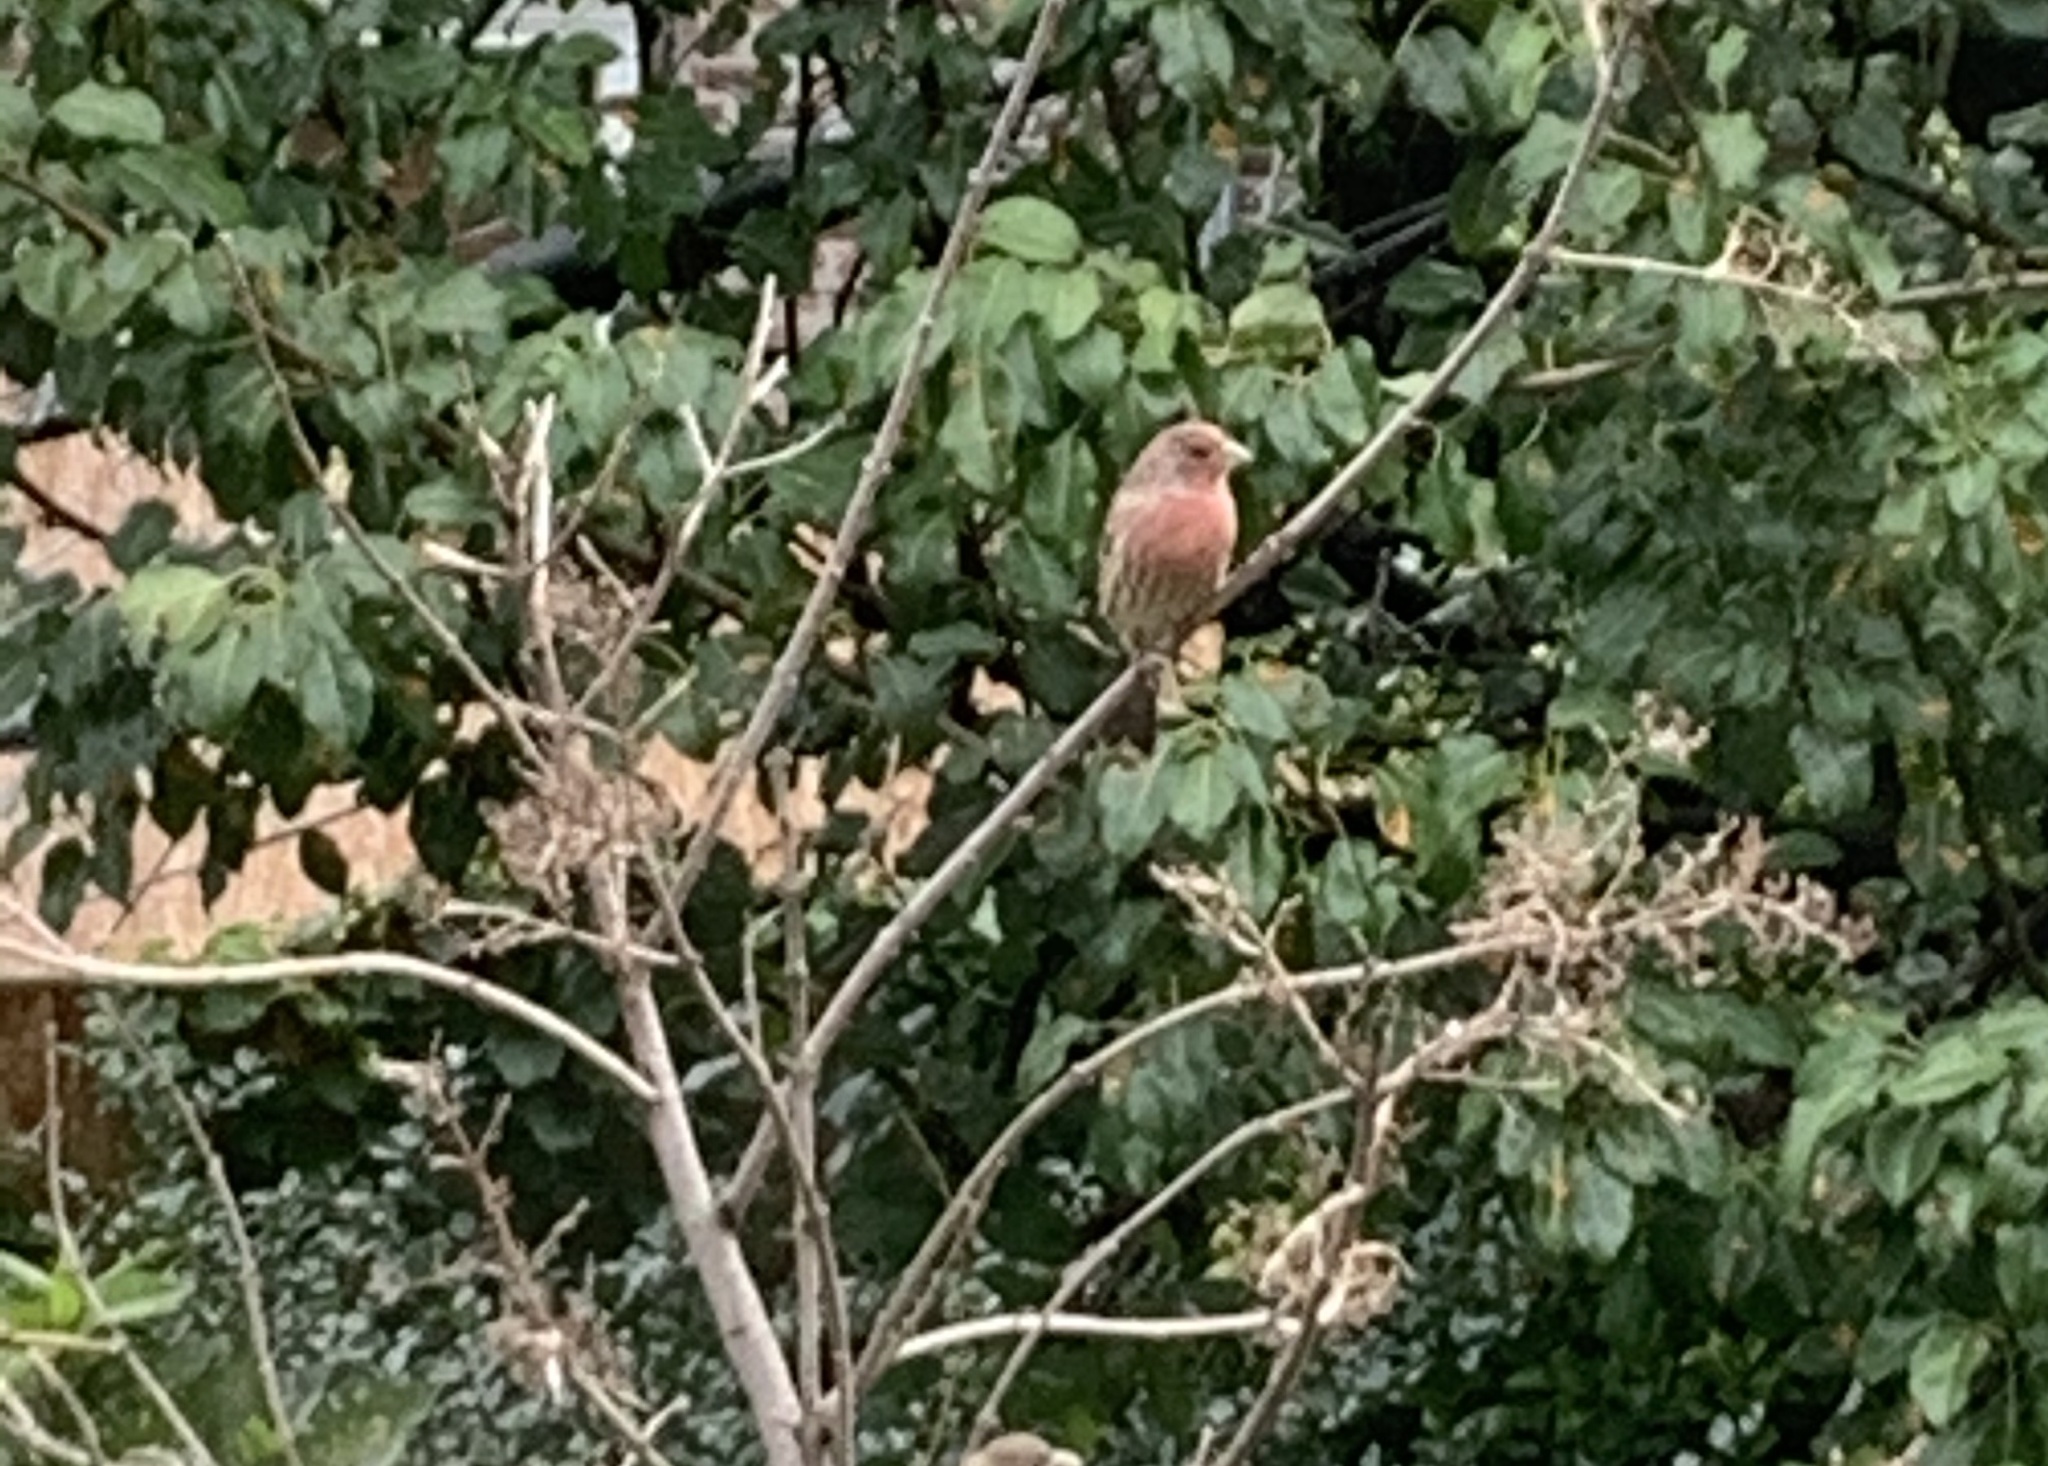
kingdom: Animalia
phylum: Chordata
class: Aves
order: Passeriformes
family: Fringillidae
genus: Haemorhous
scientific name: Haemorhous mexicanus
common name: House finch
